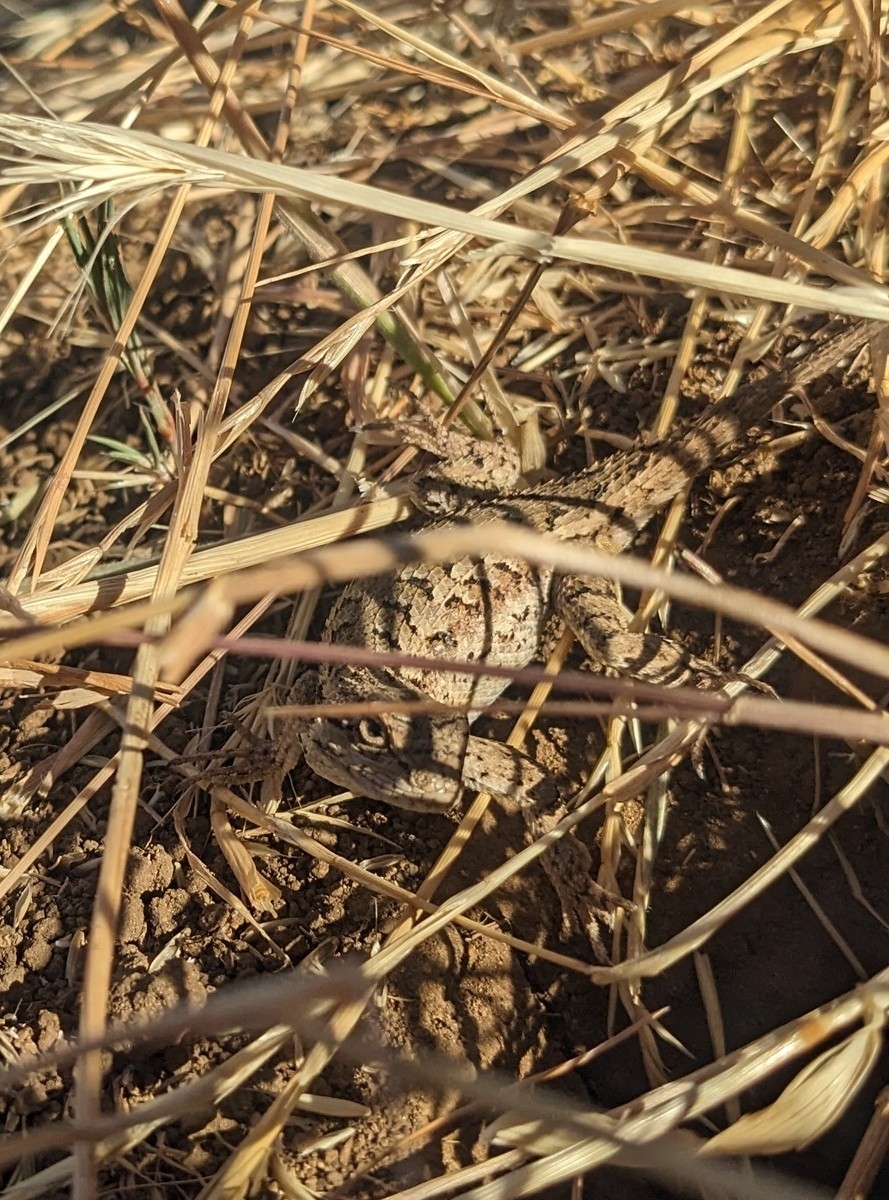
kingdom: Animalia
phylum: Chordata
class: Squamata
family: Phrynosomatidae
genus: Sceloporus
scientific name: Sceloporus occidentalis
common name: Western fence lizard
